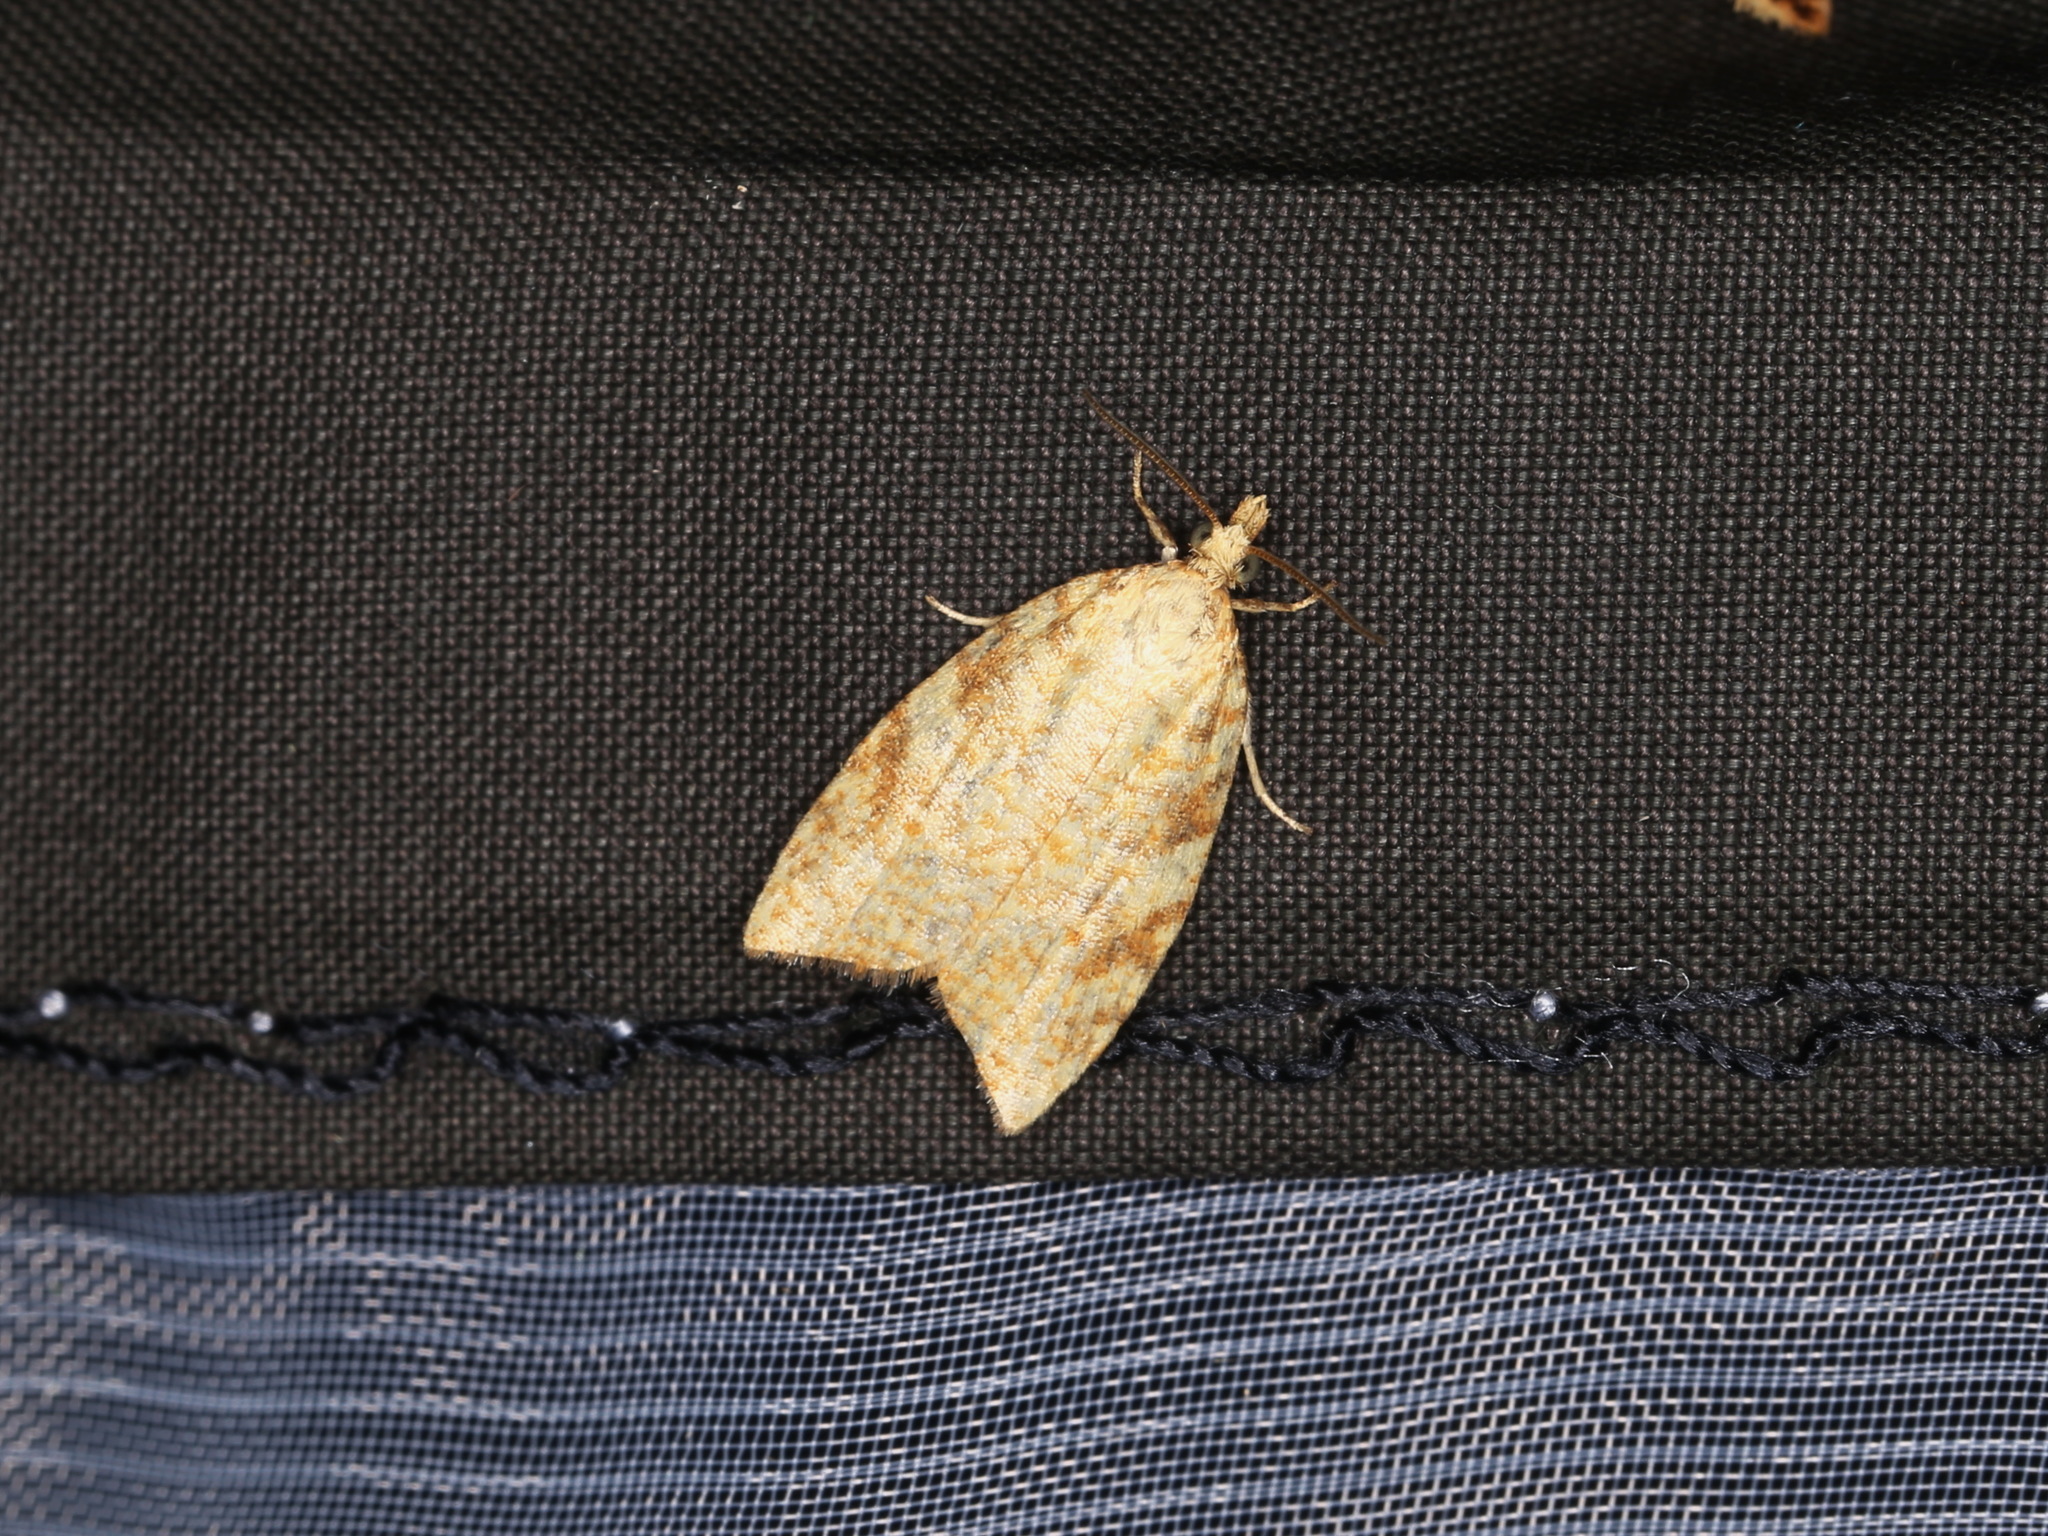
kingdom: Animalia
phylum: Arthropoda
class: Insecta
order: Lepidoptera
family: Tortricidae
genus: Aleimma
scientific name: Aleimma loeflingiana
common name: Yellow oak button
